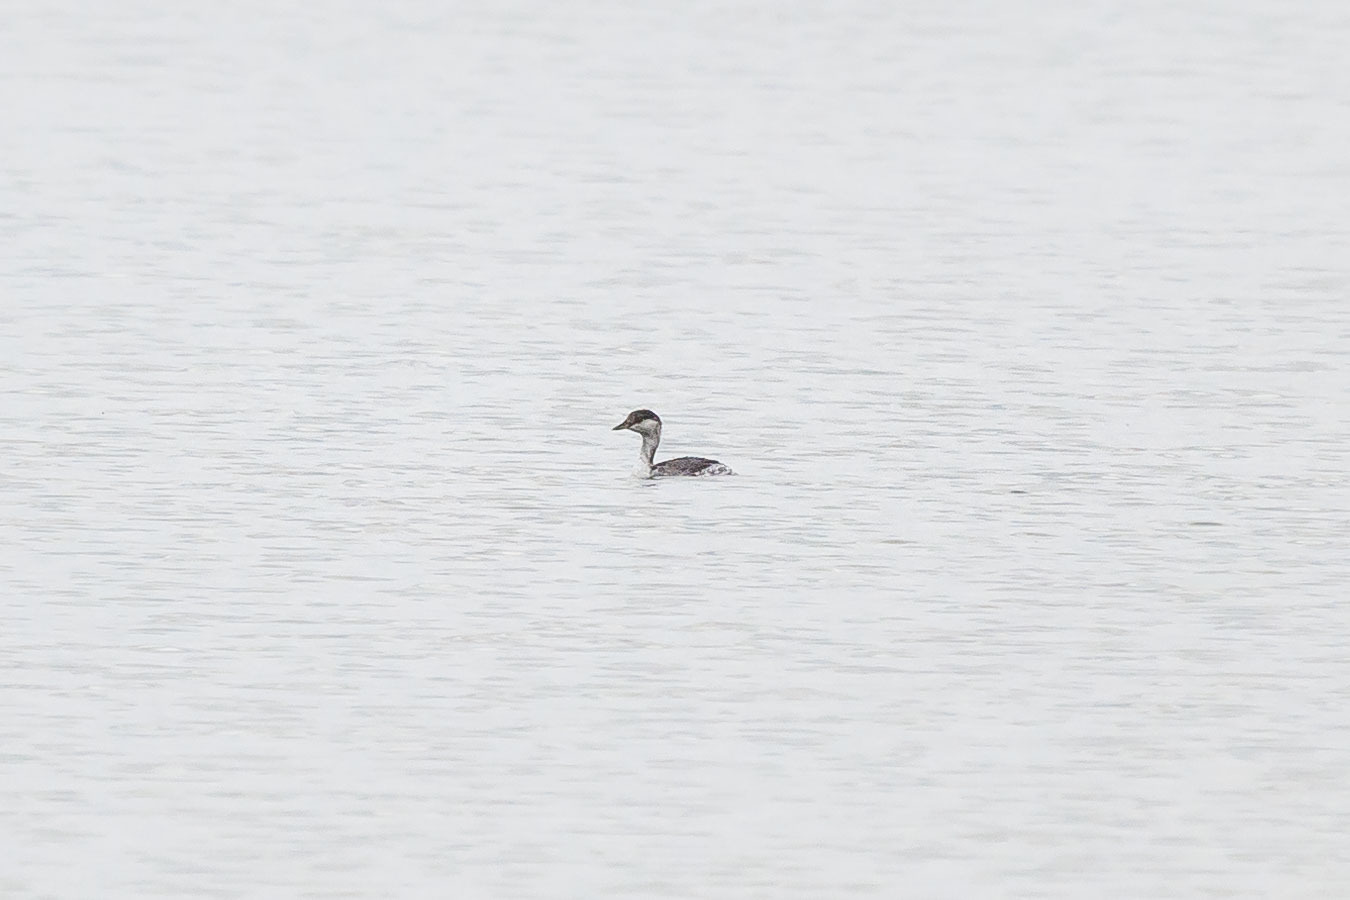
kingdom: Animalia
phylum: Chordata
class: Aves
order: Podicipediformes
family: Podicipedidae
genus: Podiceps
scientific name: Podiceps auritus
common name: Horned grebe
